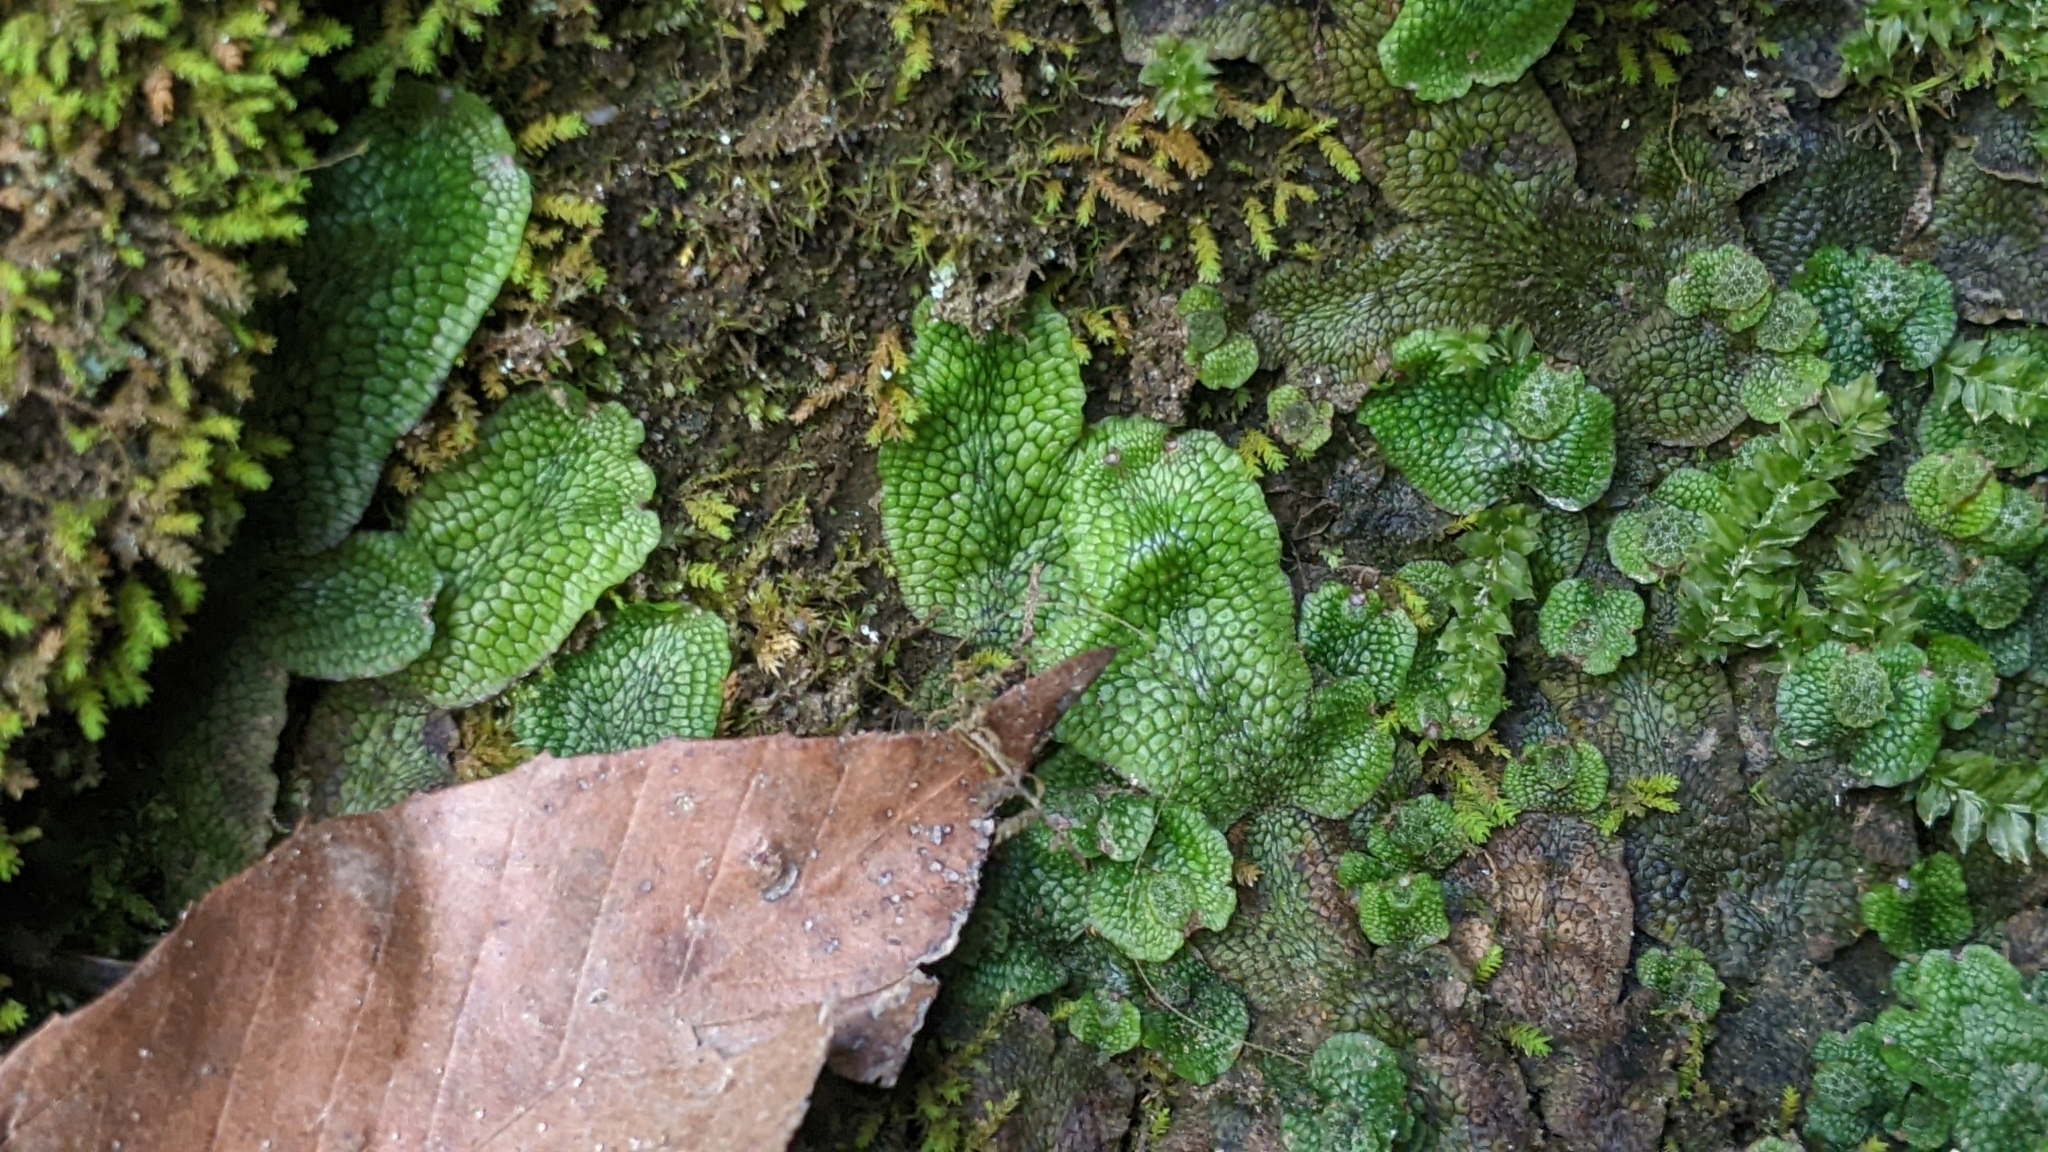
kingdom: Plantae
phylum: Marchantiophyta
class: Marchantiopsida
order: Marchantiales
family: Conocephalaceae
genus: Conocephalum
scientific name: Conocephalum salebrosum
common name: Cat-tongue liverwort
